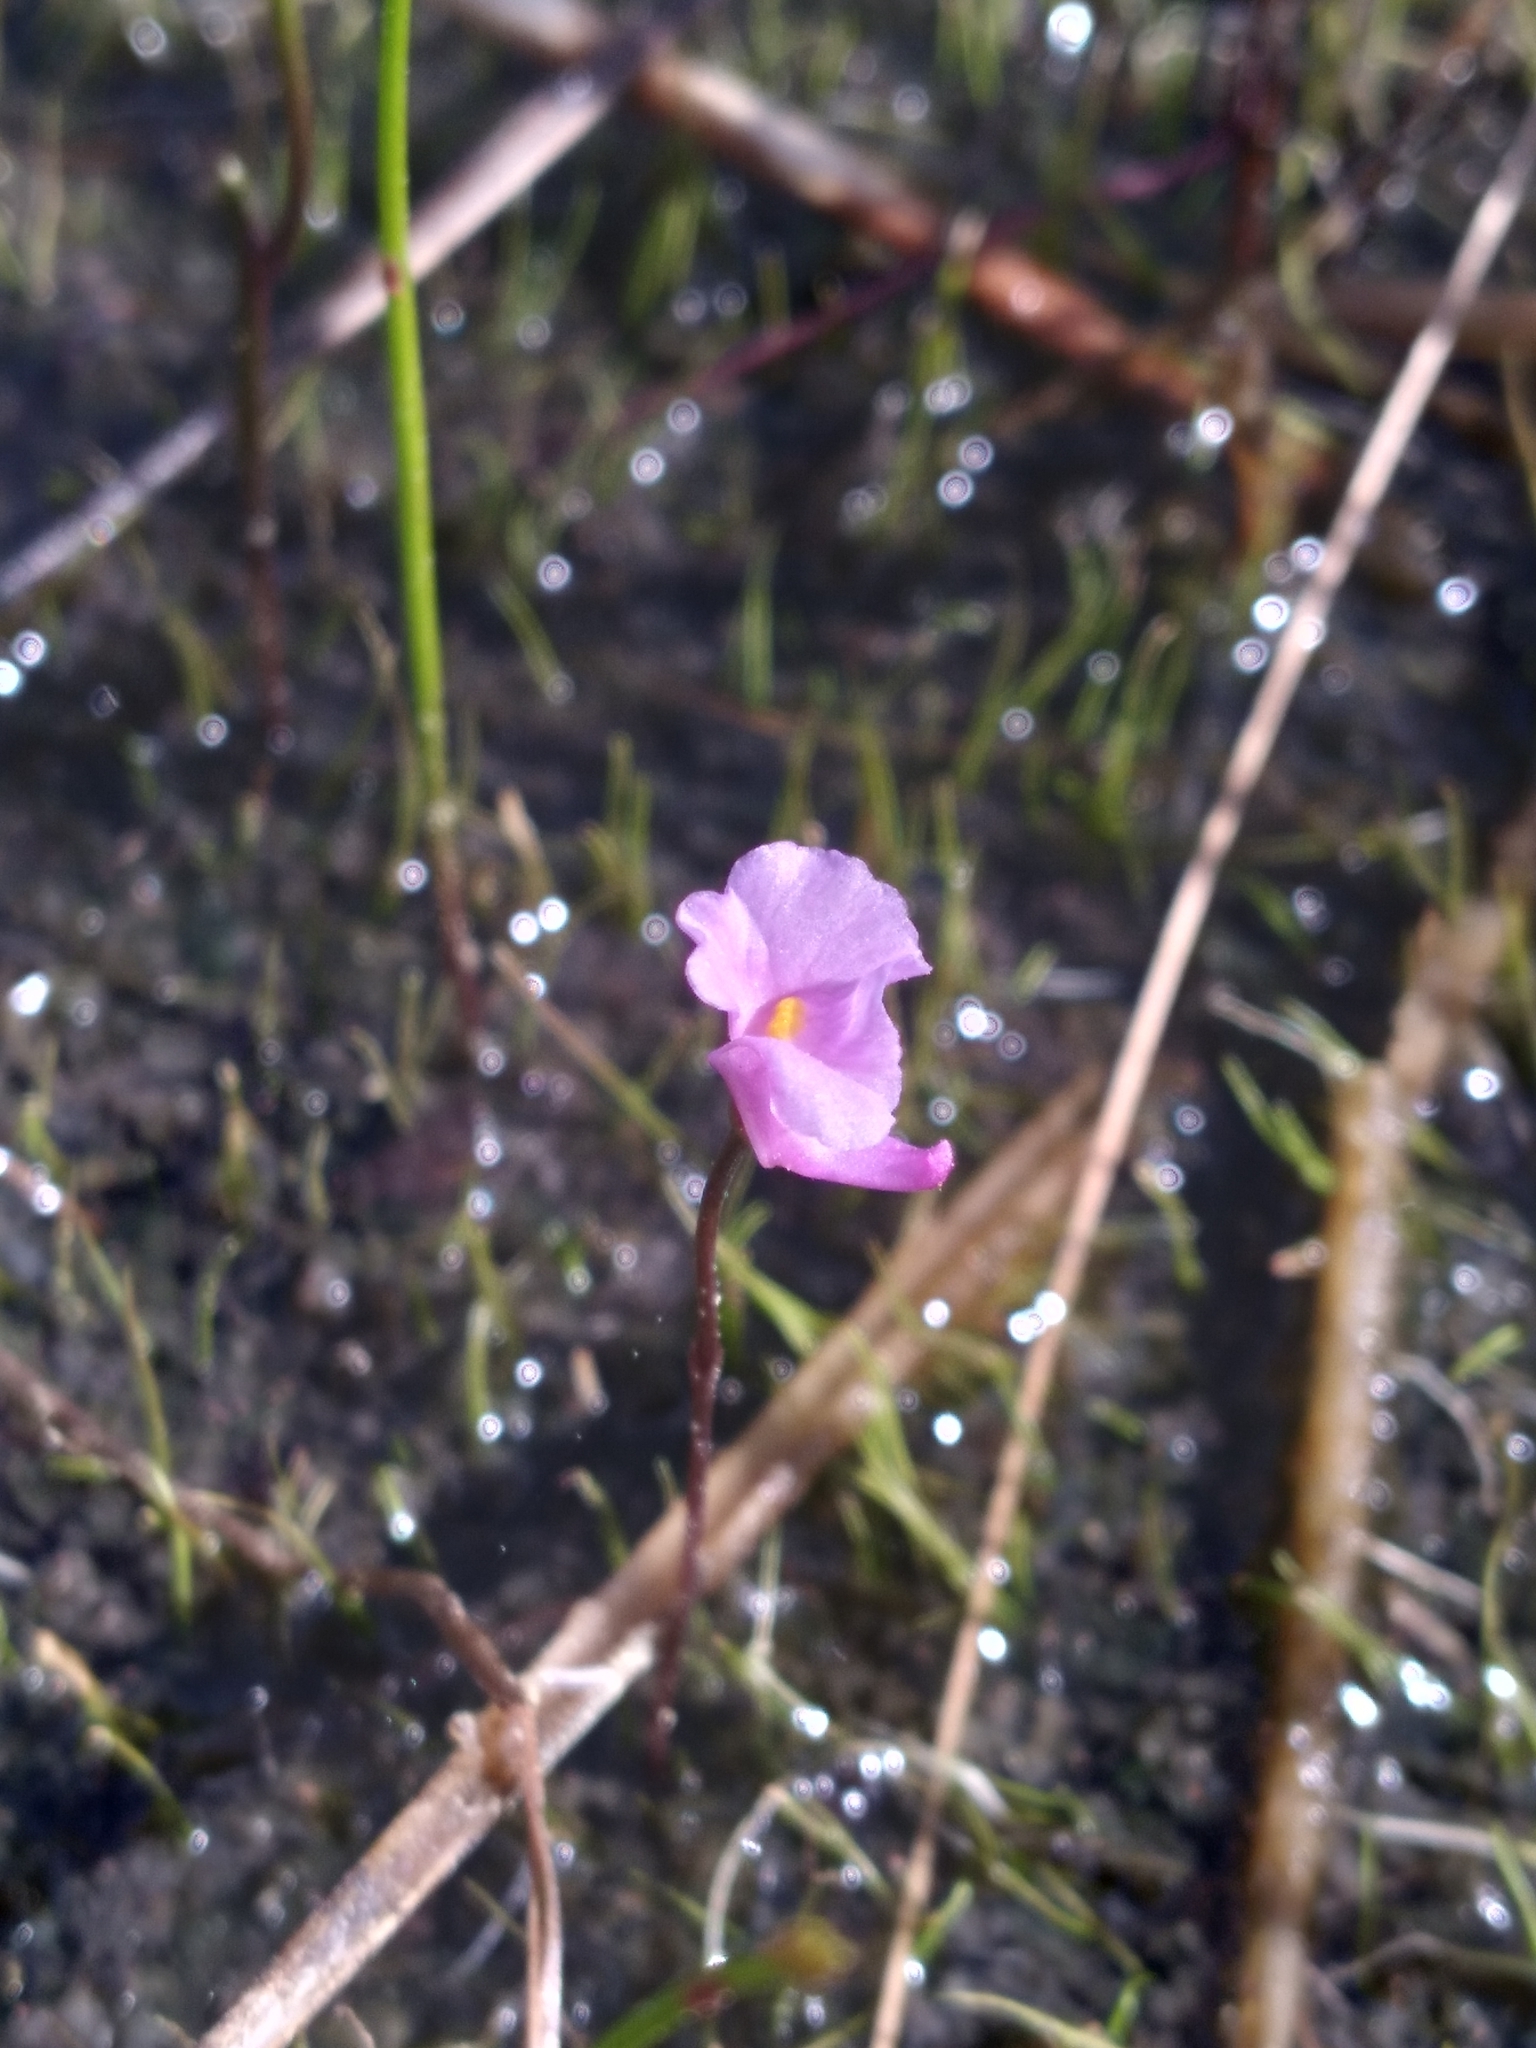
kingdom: Plantae
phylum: Tracheophyta
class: Magnoliopsida
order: Lamiales
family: Lentibulariaceae
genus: Utricularia
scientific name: Utricularia resupinata
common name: Northeastern bladderwort
